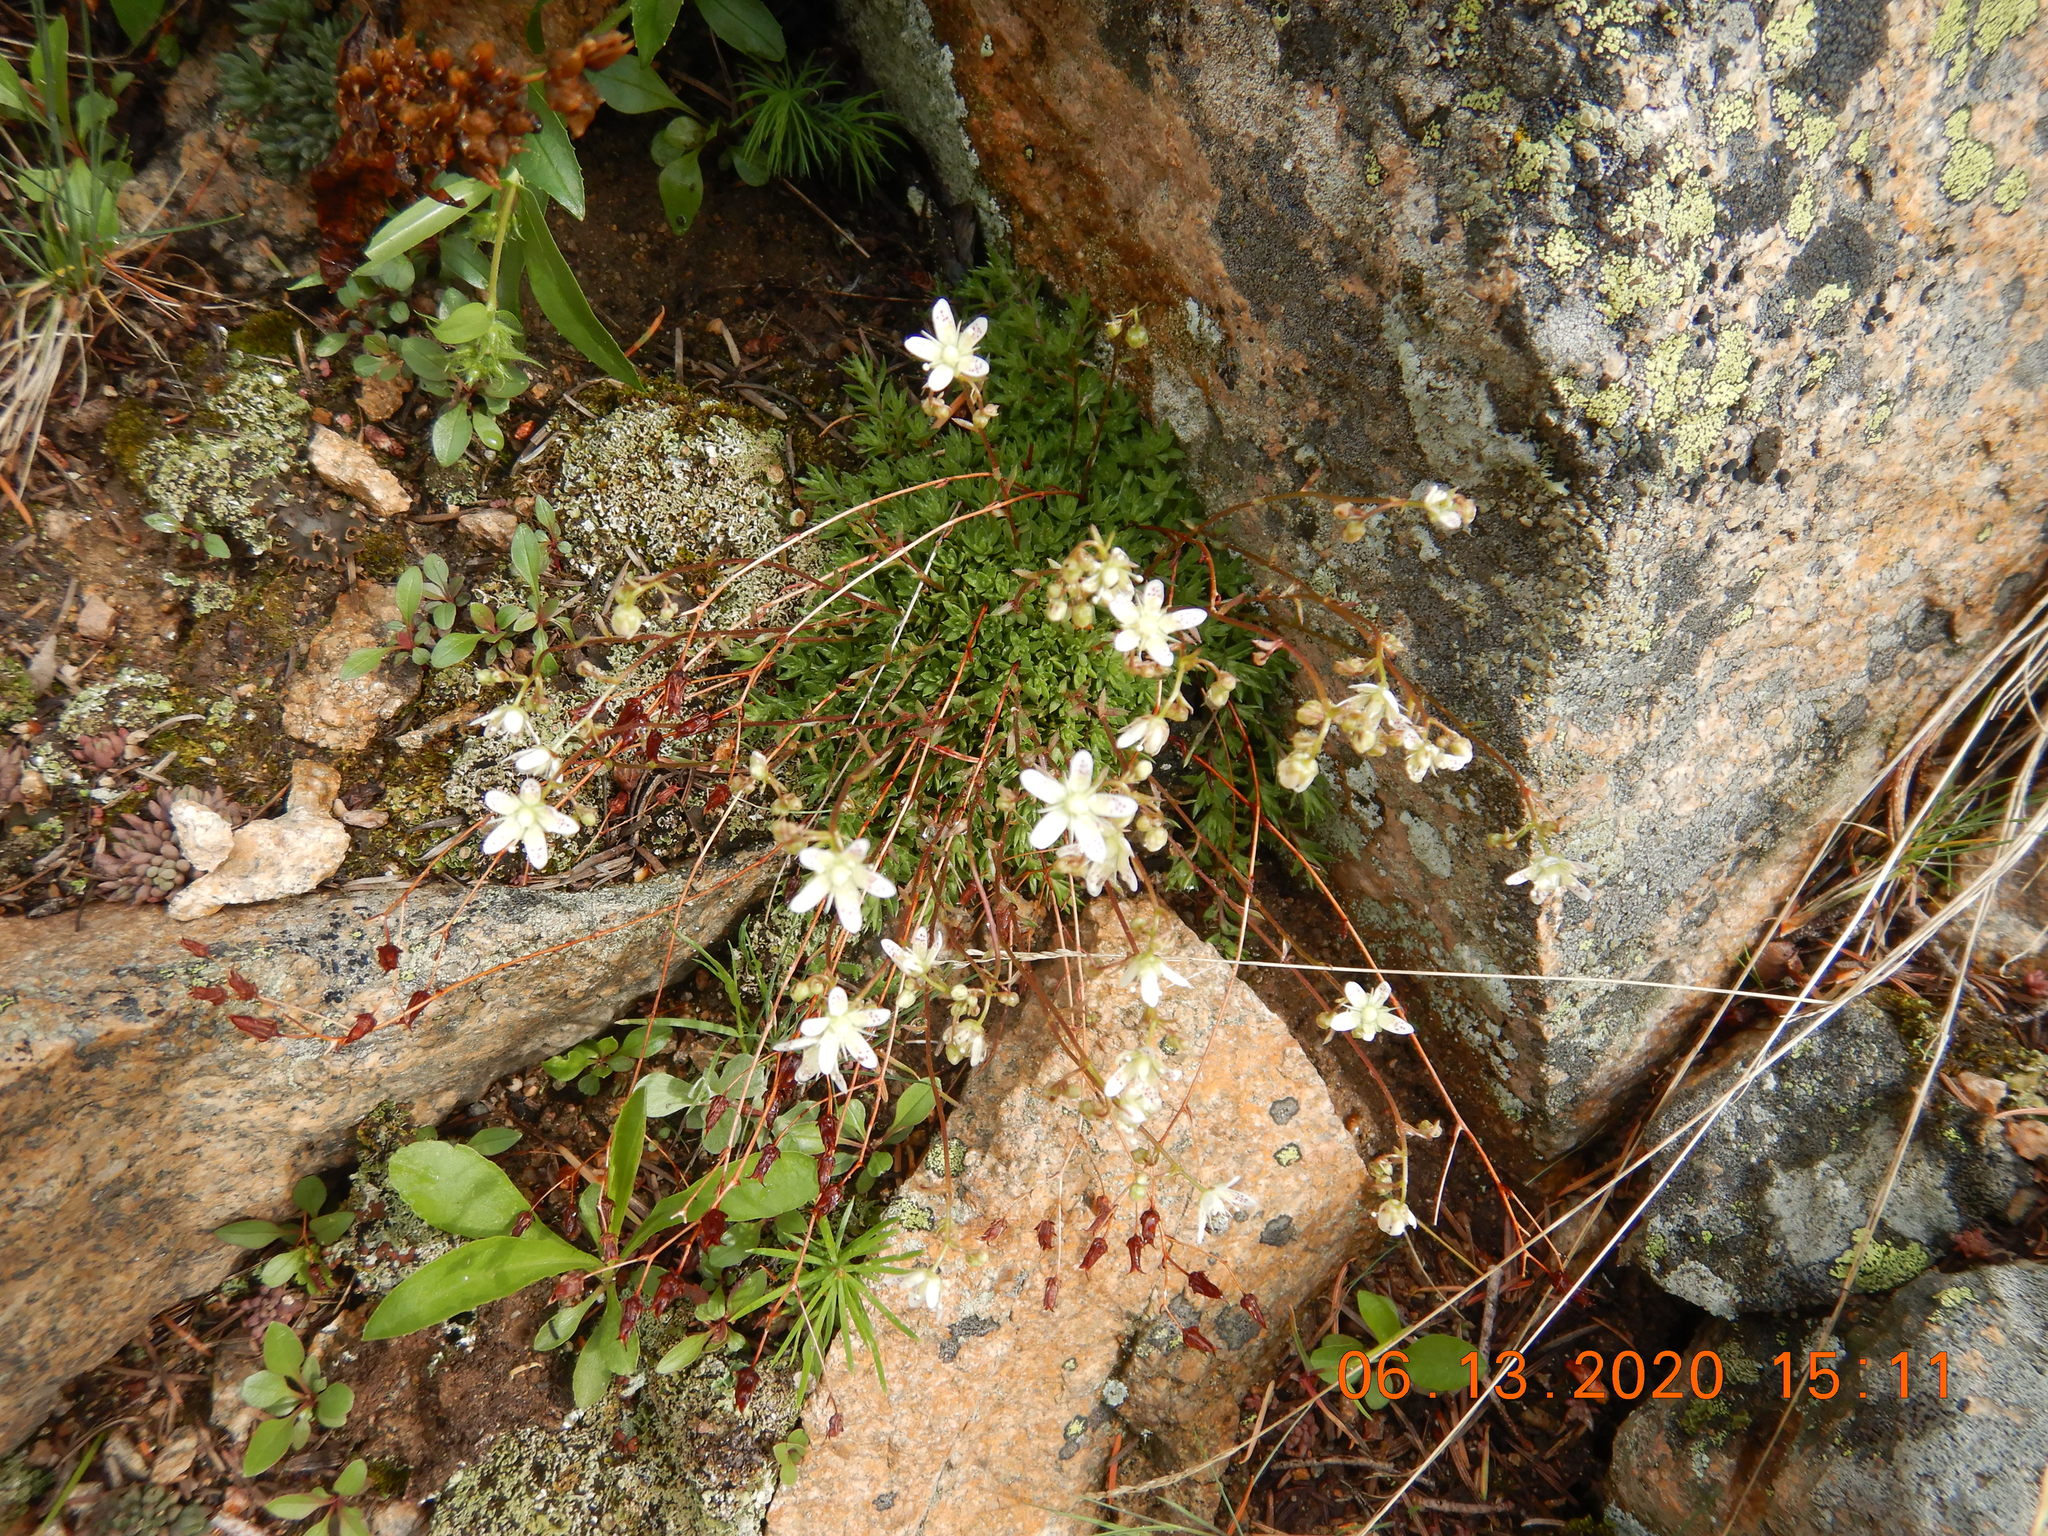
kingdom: Plantae
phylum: Tracheophyta
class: Magnoliopsida
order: Saxifragales
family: Saxifragaceae
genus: Saxifraga
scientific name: Saxifraga bronchialis
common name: Matted saxifrage
